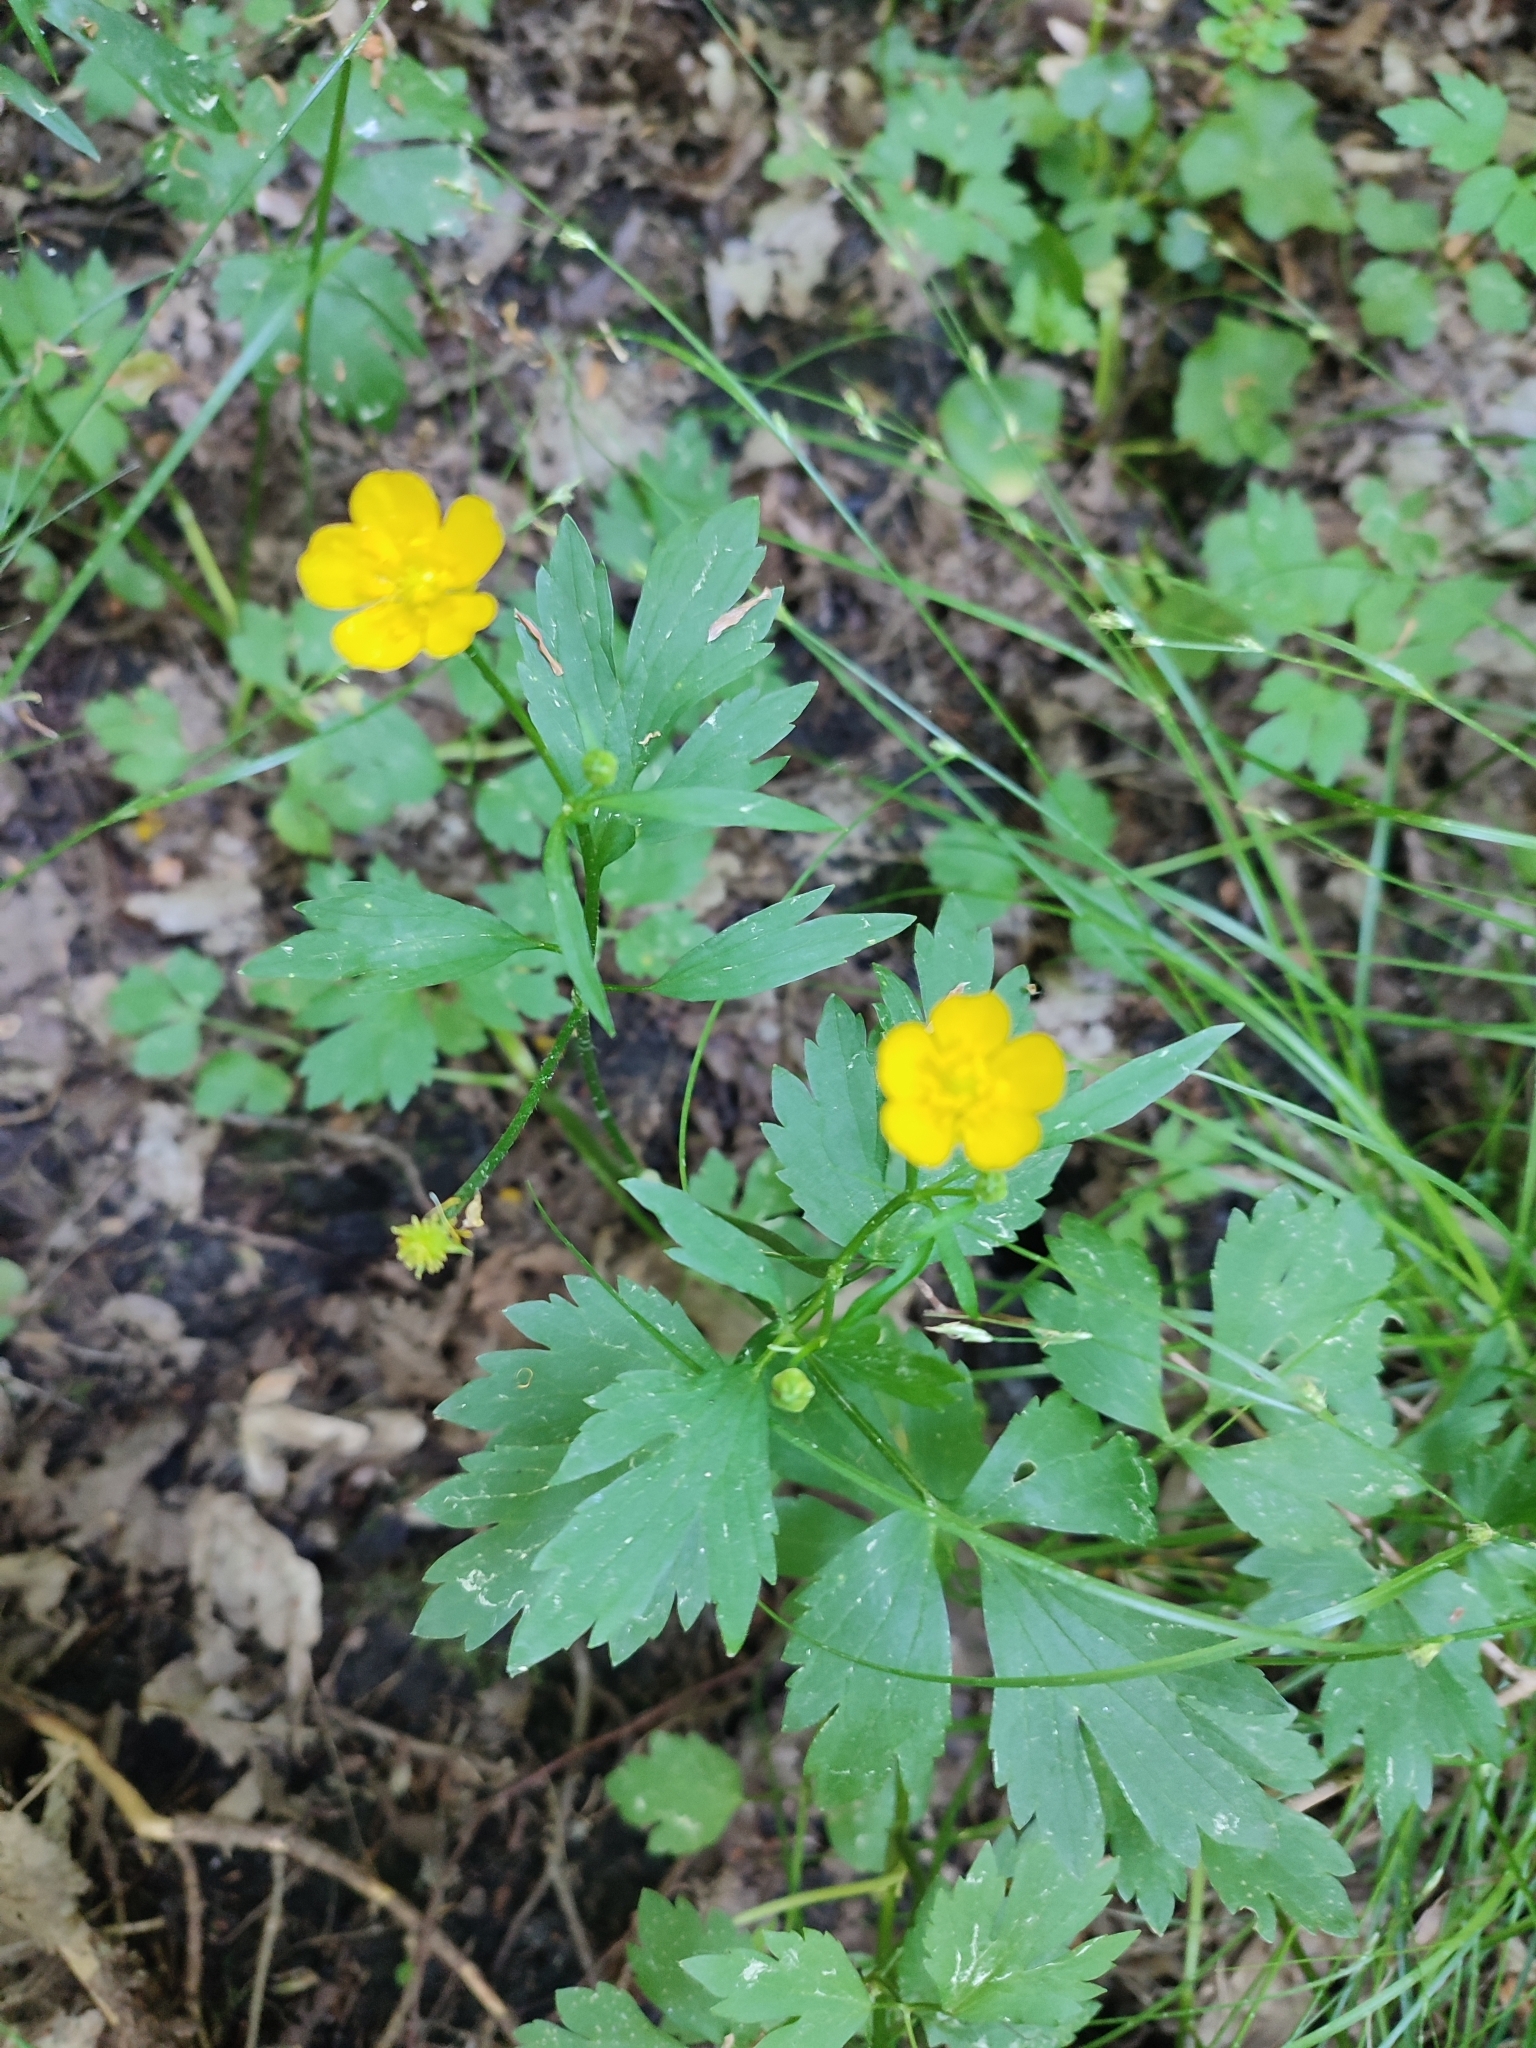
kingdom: Plantae
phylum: Tracheophyta
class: Magnoliopsida
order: Ranunculales
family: Ranunculaceae
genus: Ranunculus
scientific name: Ranunculus repens
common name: Creeping buttercup
